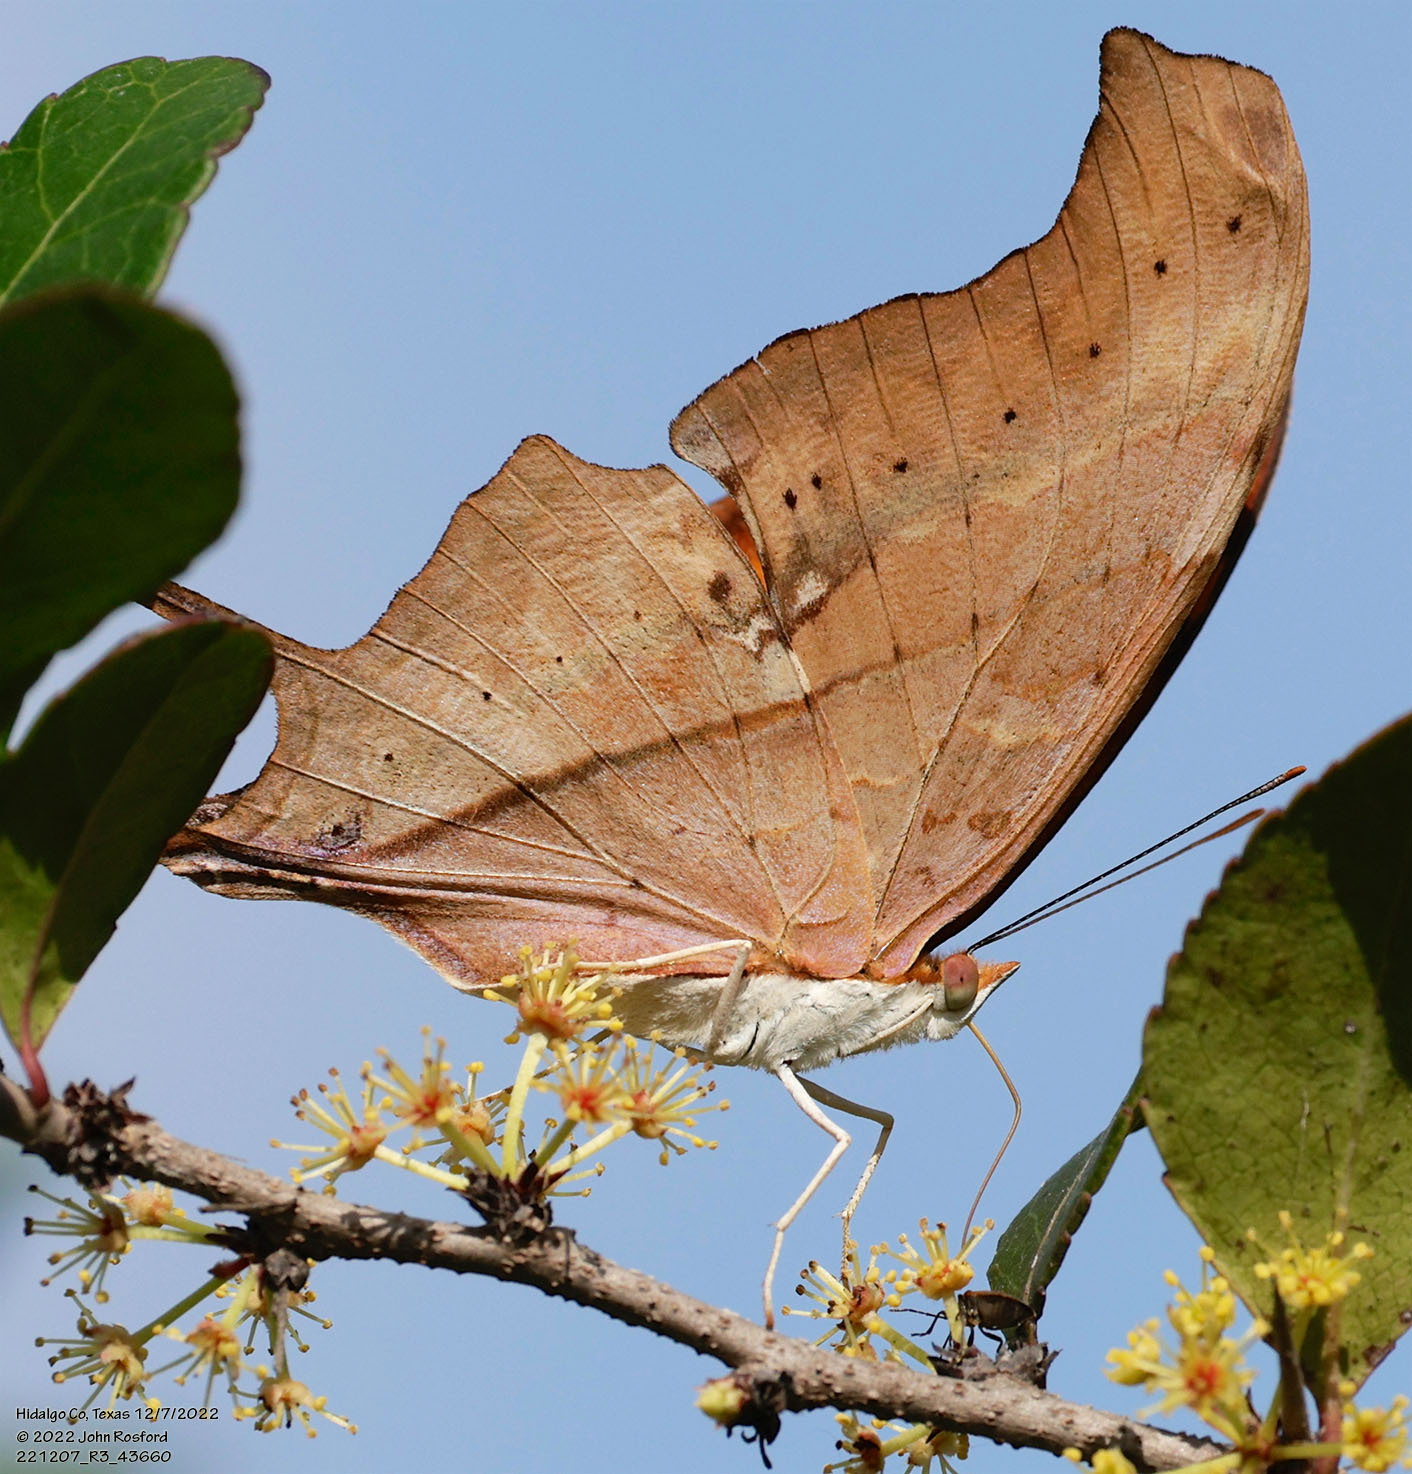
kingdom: Animalia
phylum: Arthropoda
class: Insecta
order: Lepidoptera
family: Nymphalidae
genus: Marpesia
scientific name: Marpesia petreus
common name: Red dagger wing
